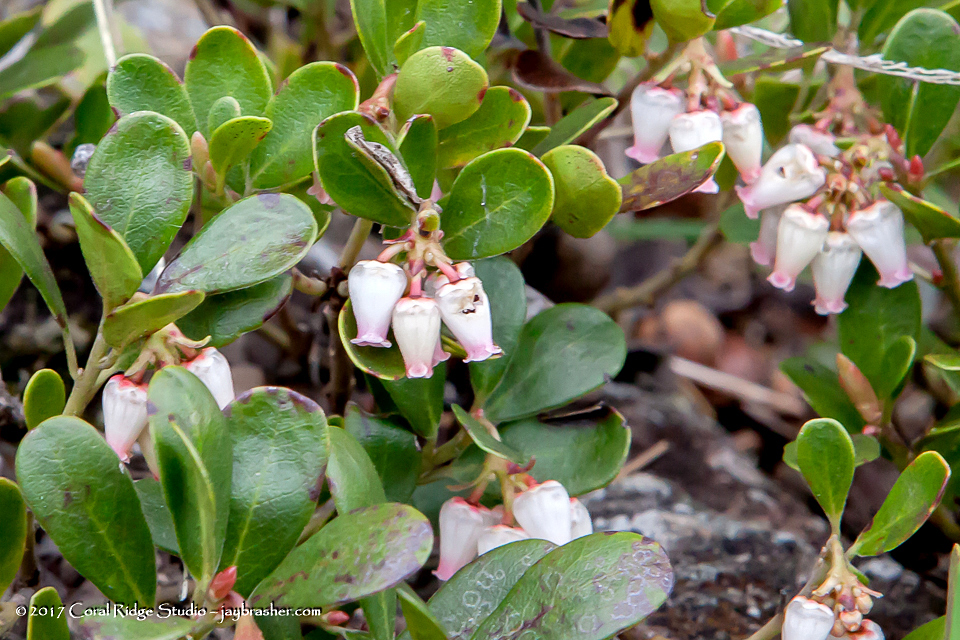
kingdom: Plantae
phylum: Tracheophyta
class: Magnoliopsida
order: Ericales
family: Ericaceae
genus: Arctostaphylos
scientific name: Arctostaphylos uva-ursi
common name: Bearberry
